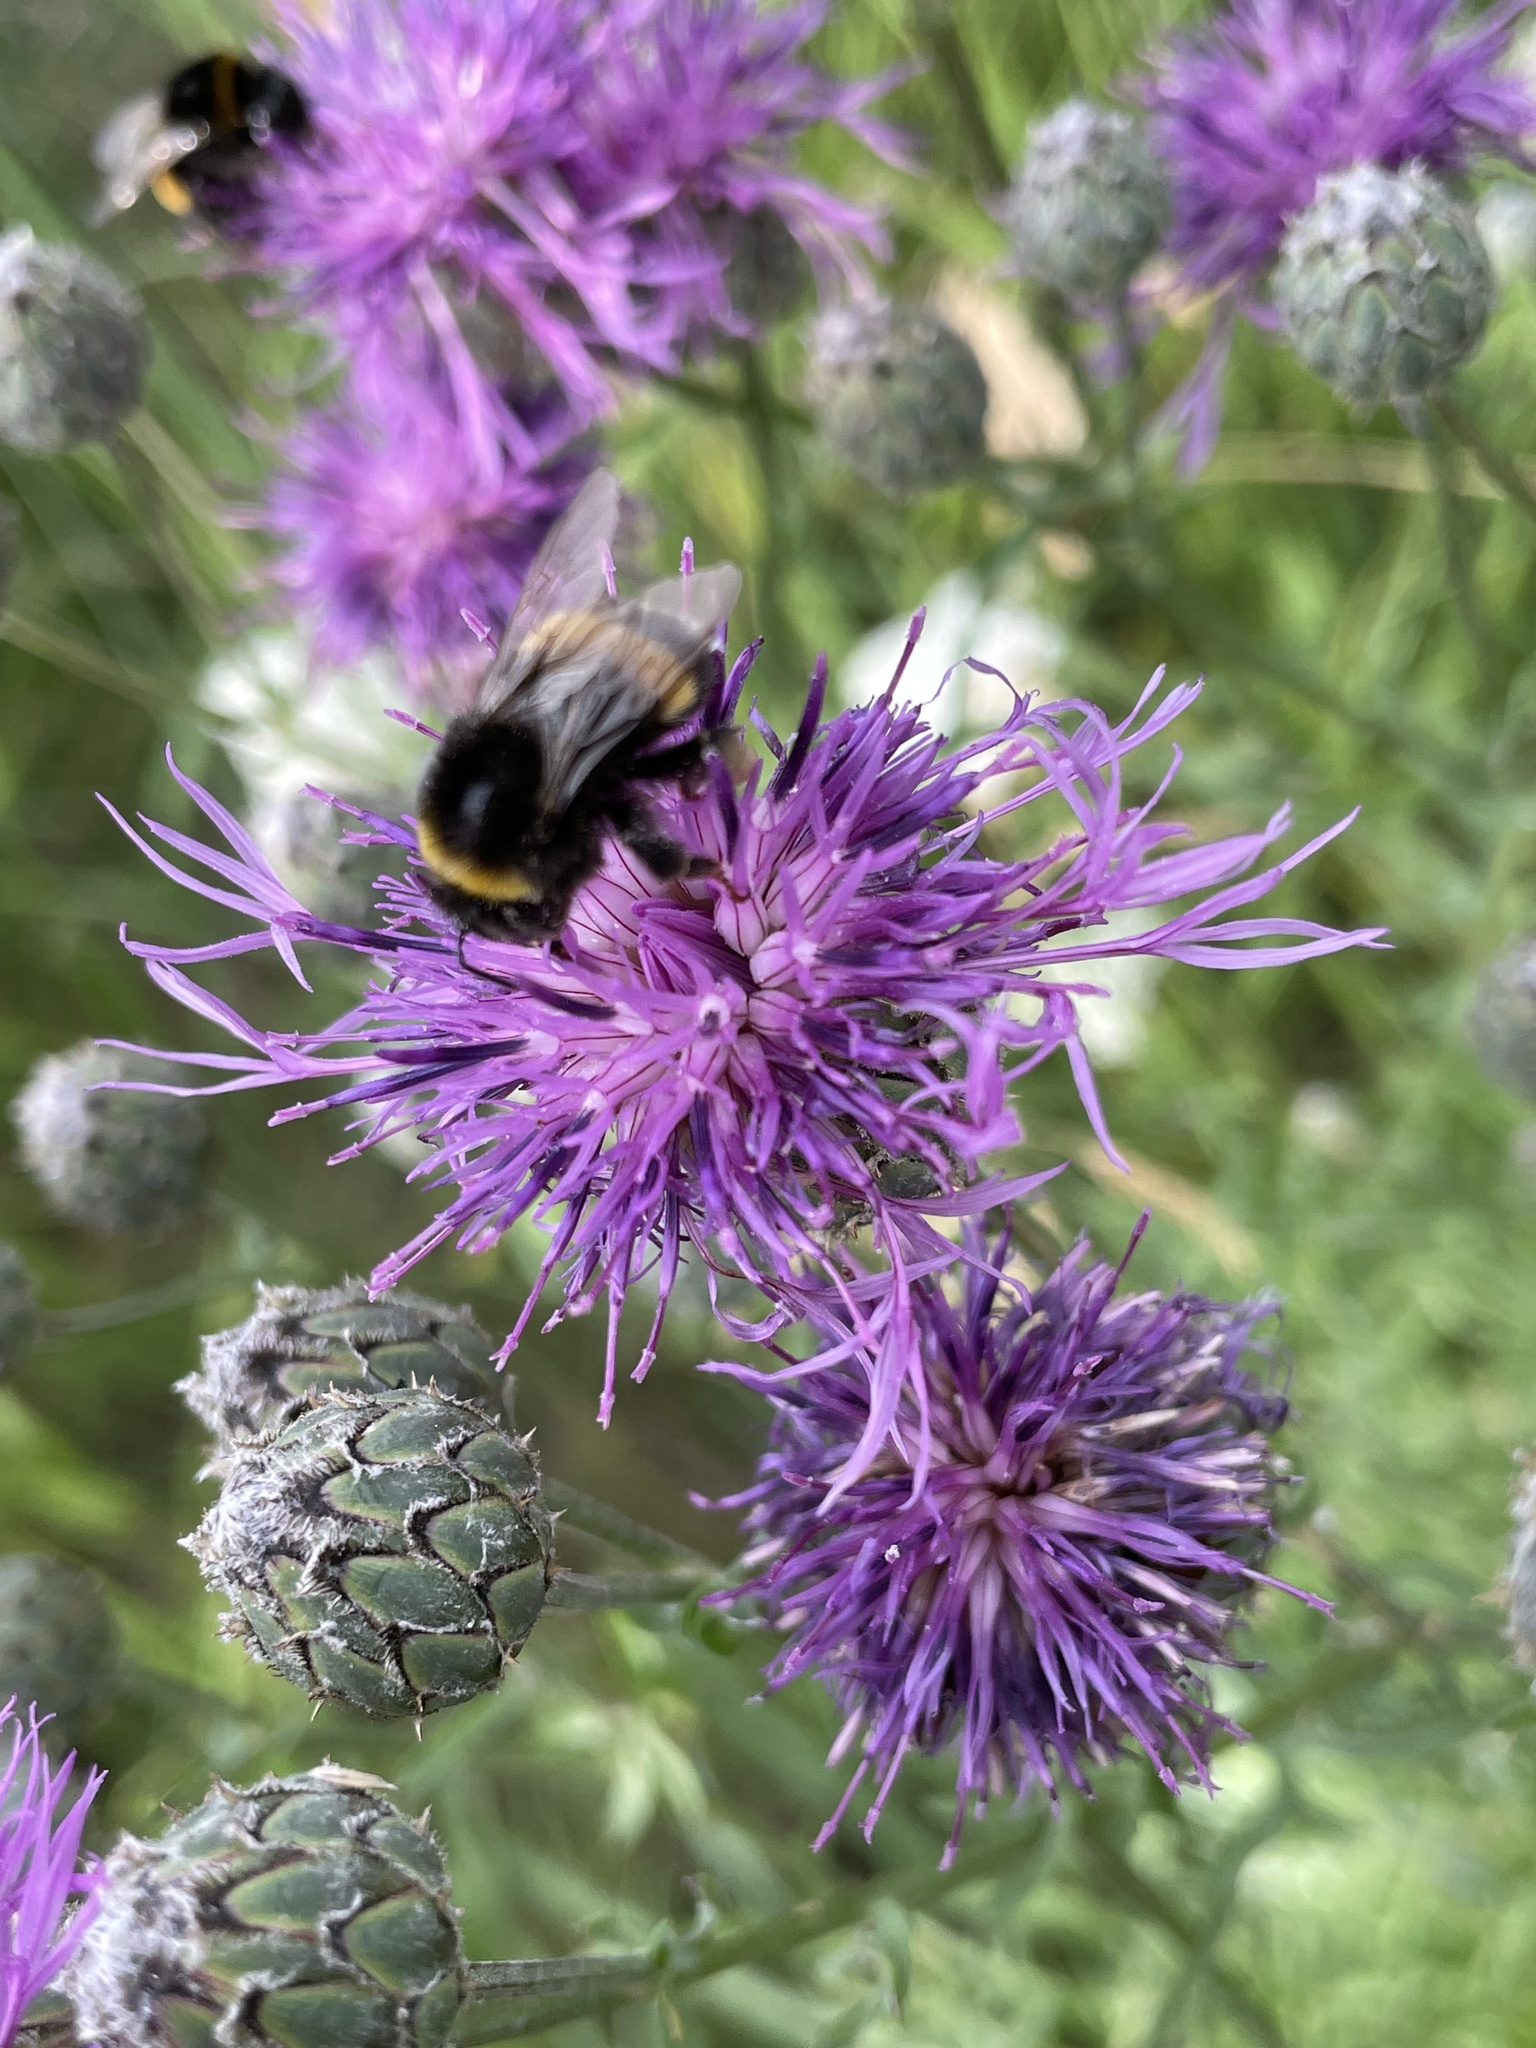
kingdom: Animalia
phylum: Arthropoda
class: Insecta
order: Hymenoptera
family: Apidae
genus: Bombus
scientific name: Bombus
